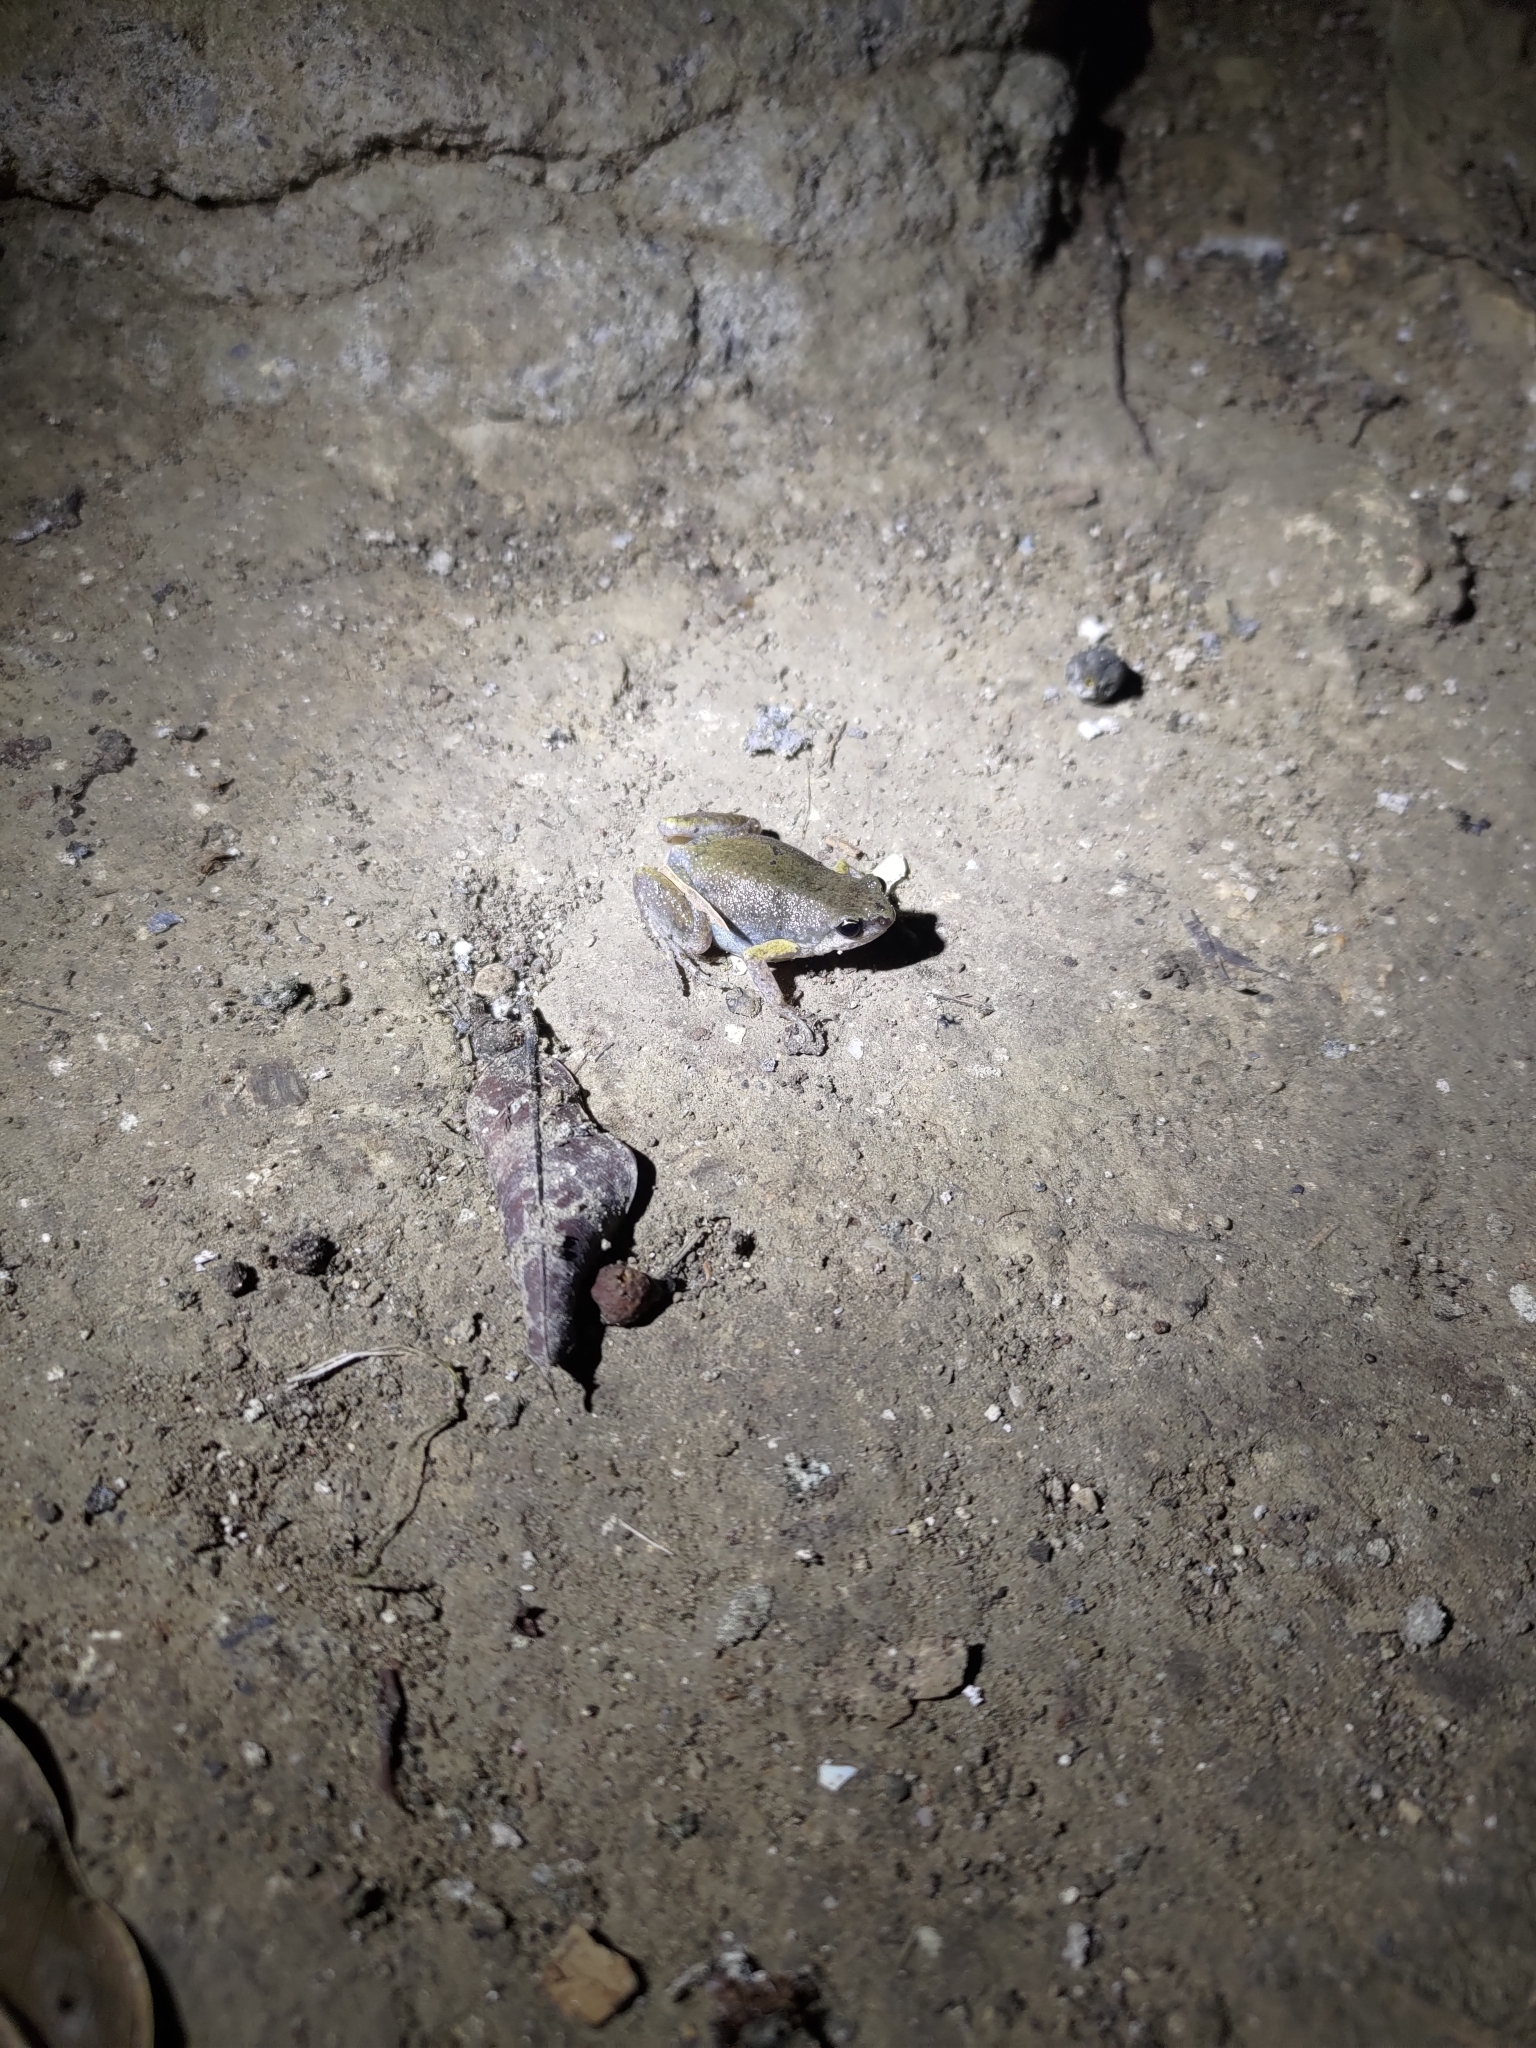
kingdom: Animalia
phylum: Chordata
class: Amphibia
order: Anura
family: Microhylidae
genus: Micryletta
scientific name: Micryletta steinegeri
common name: Stejneger's paddy frog
